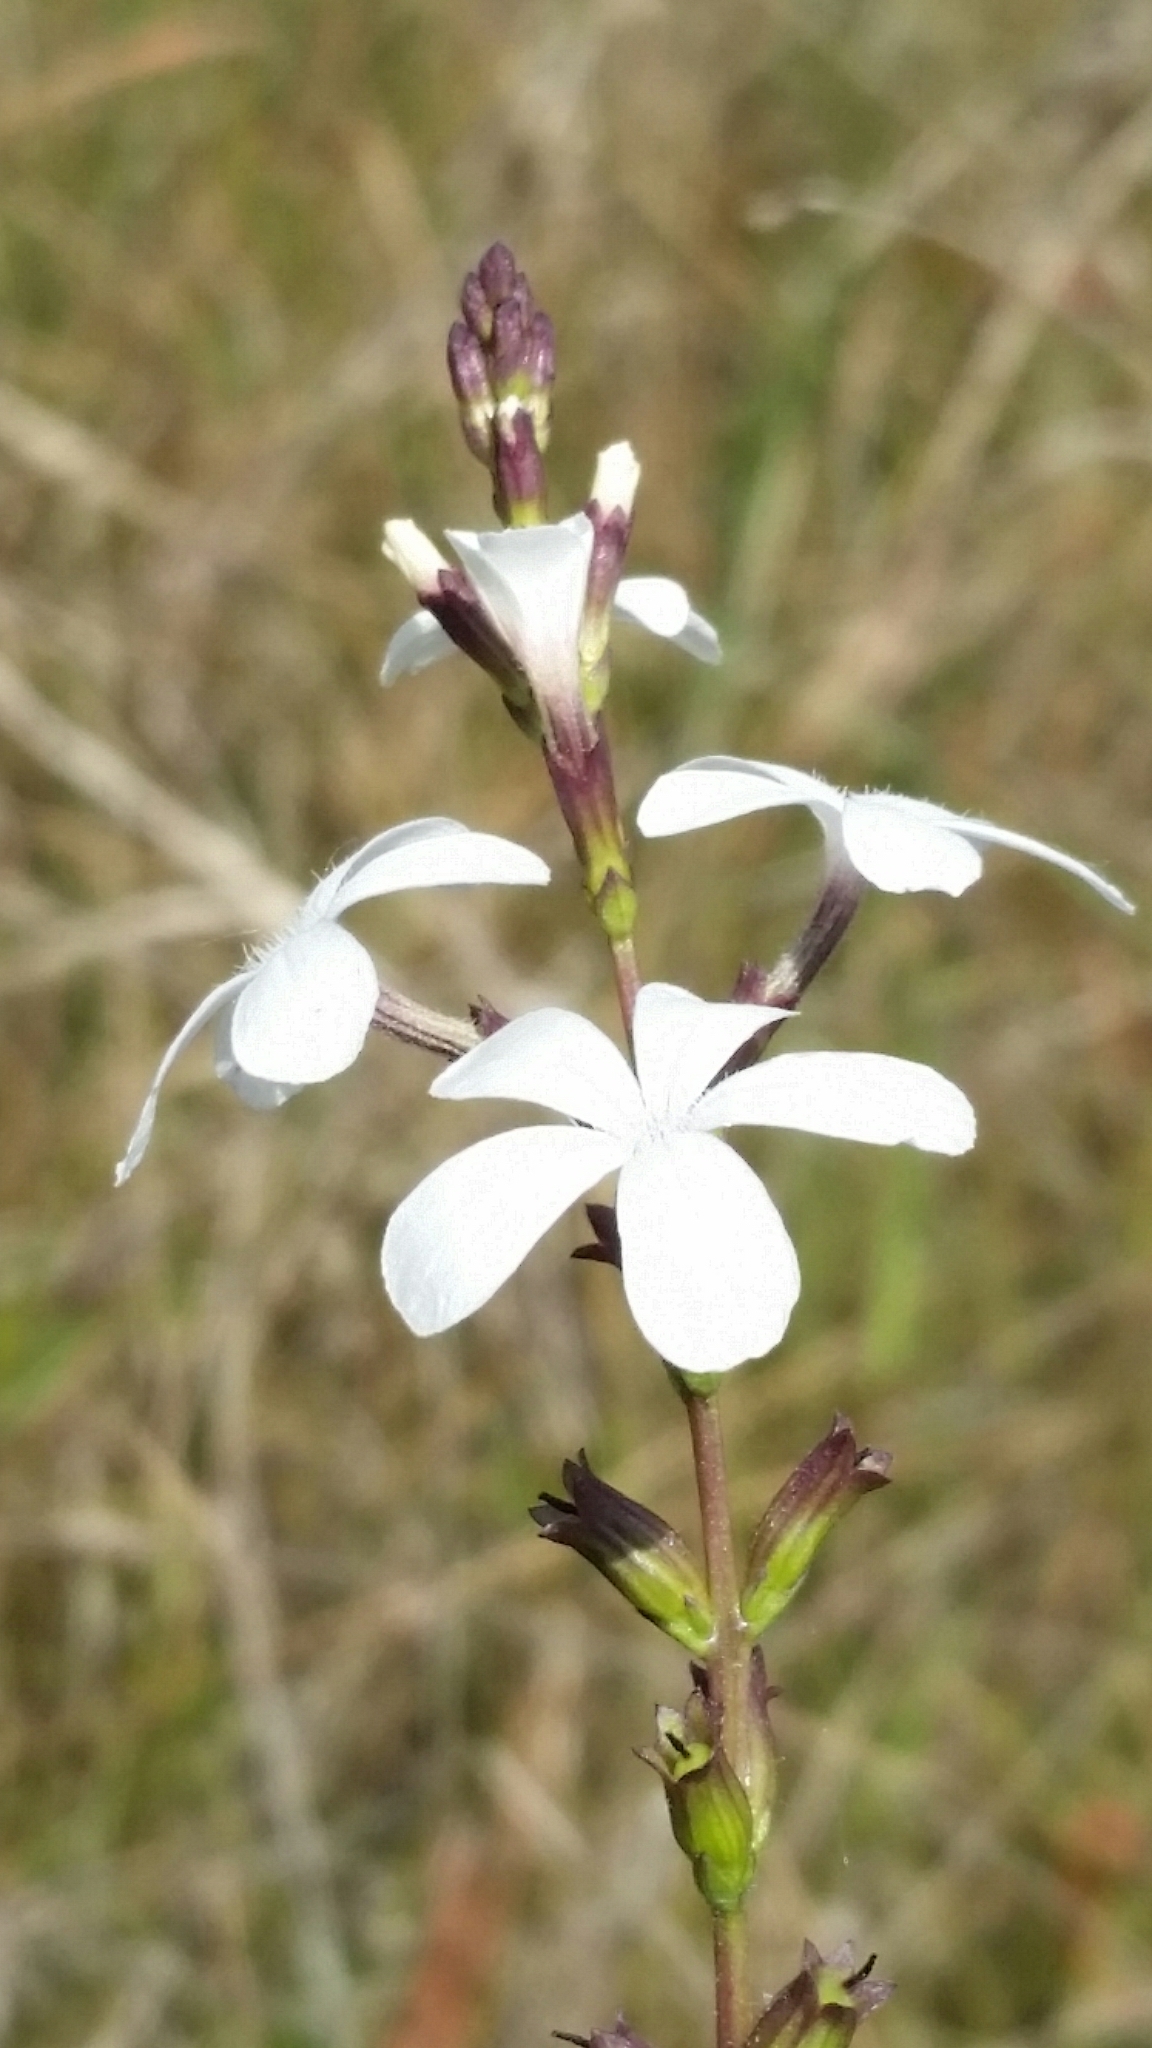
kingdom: Plantae
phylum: Tracheophyta
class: Magnoliopsida
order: Lamiales
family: Orobanchaceae
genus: Buchnera
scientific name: Buchnera floridana
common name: Florida bluehearts
